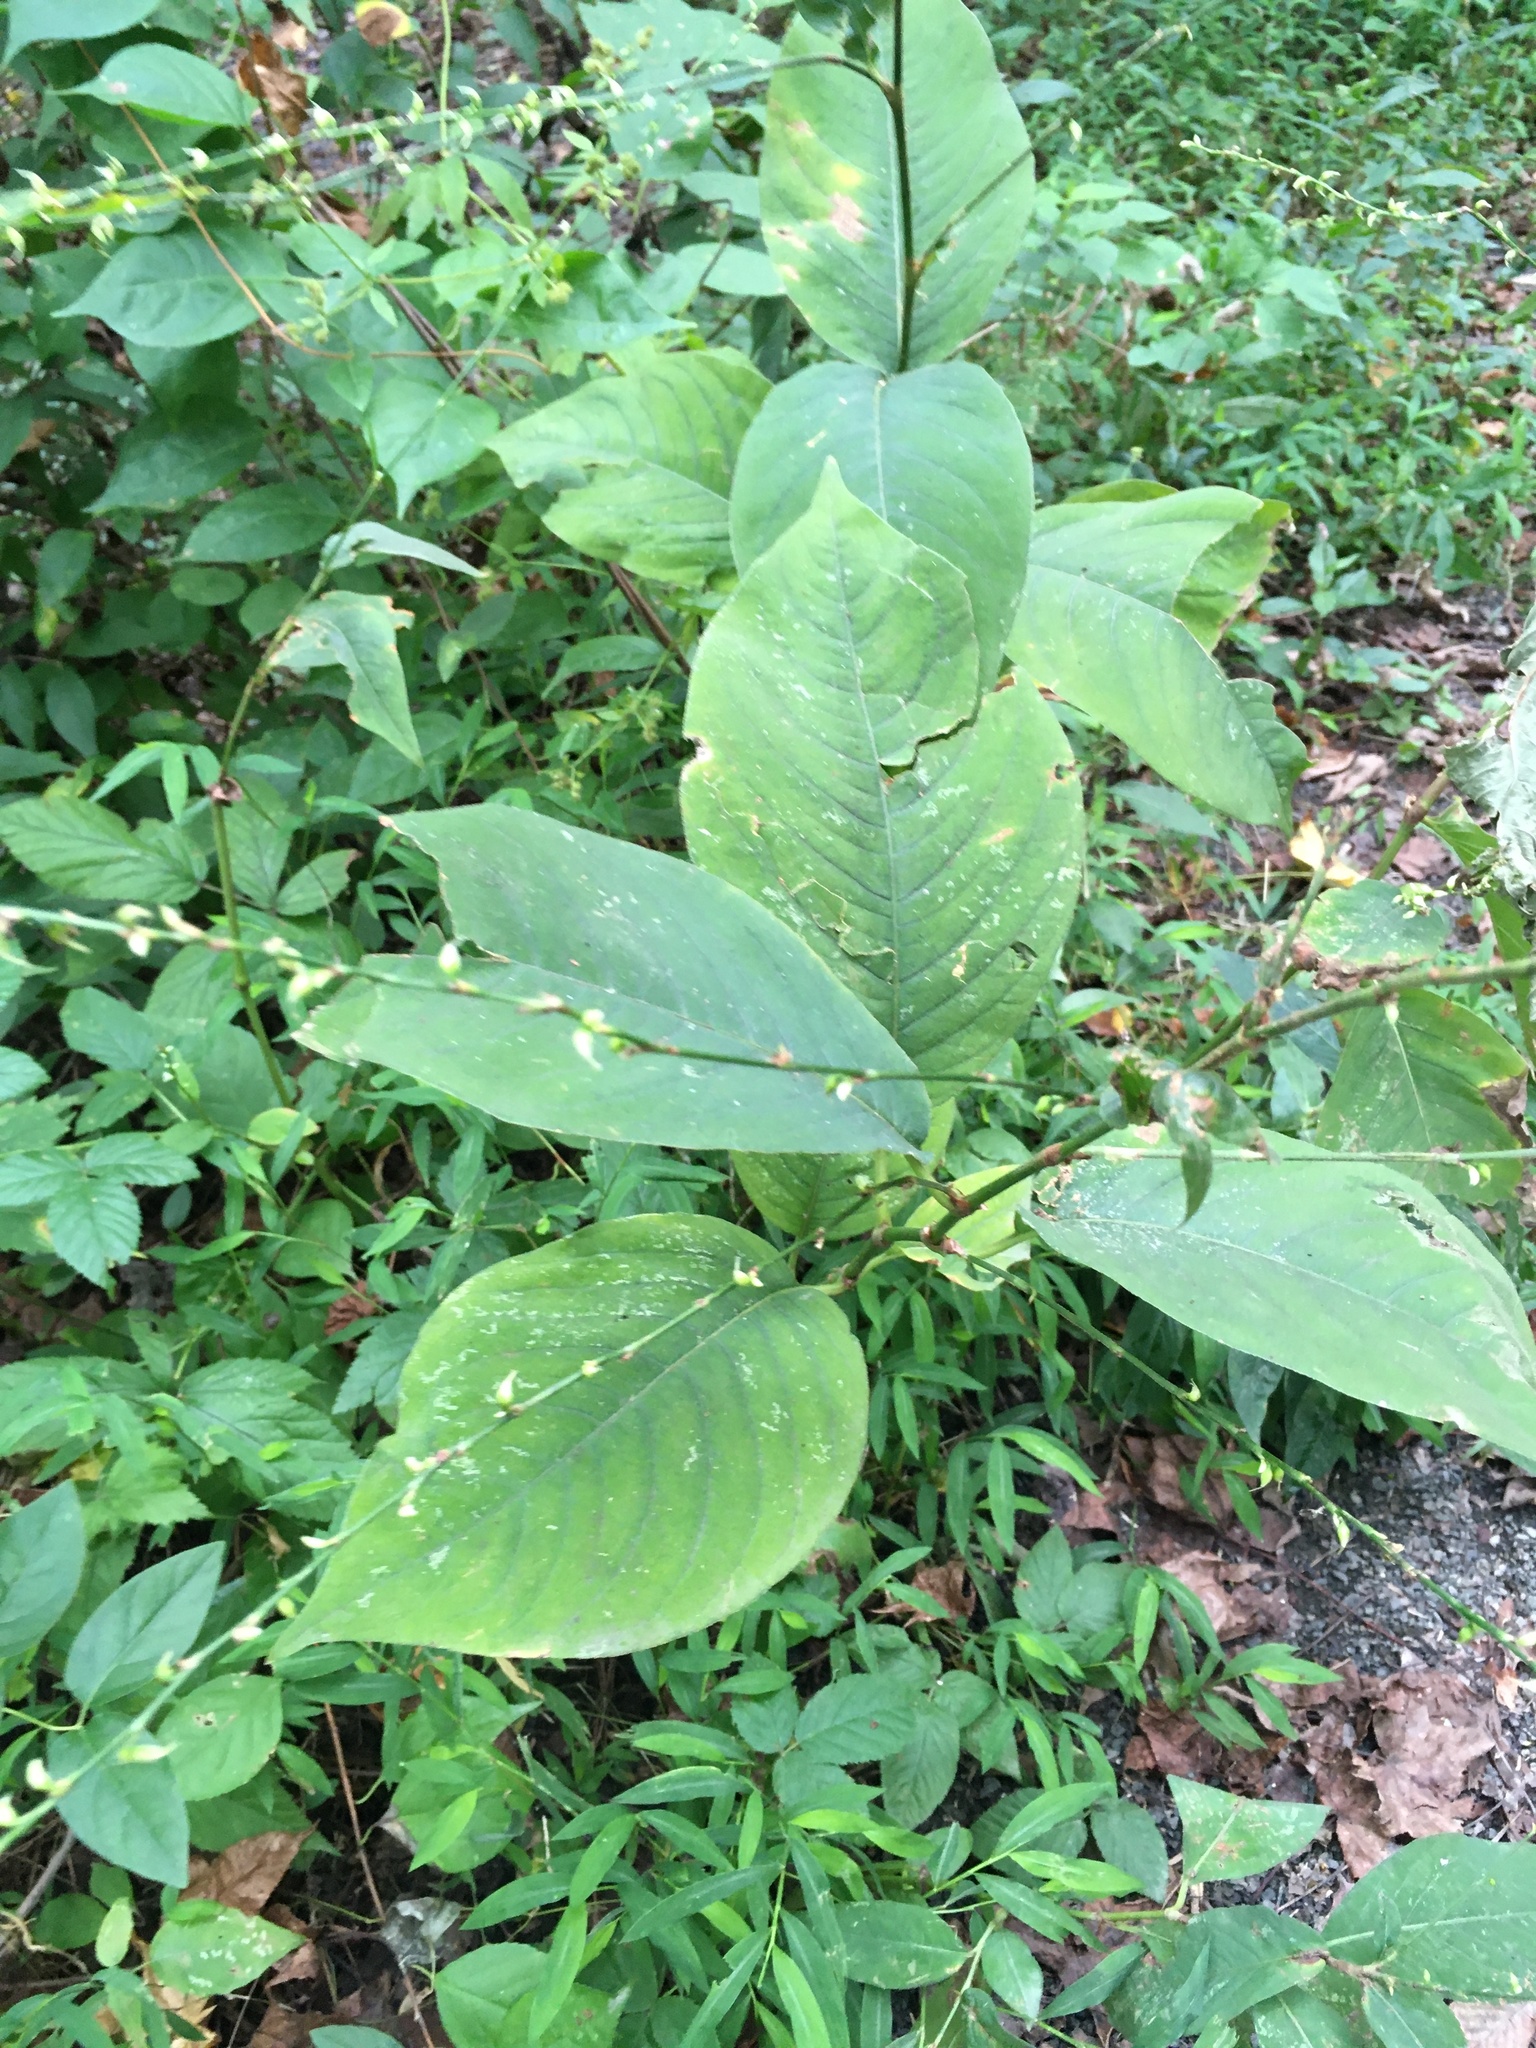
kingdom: Plantae
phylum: Tracheophyta
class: Magnoliopsida
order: Caryophyllales
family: Polygonaceae
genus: Persicaria
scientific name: Persicaria virginiana
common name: Jumpseed
